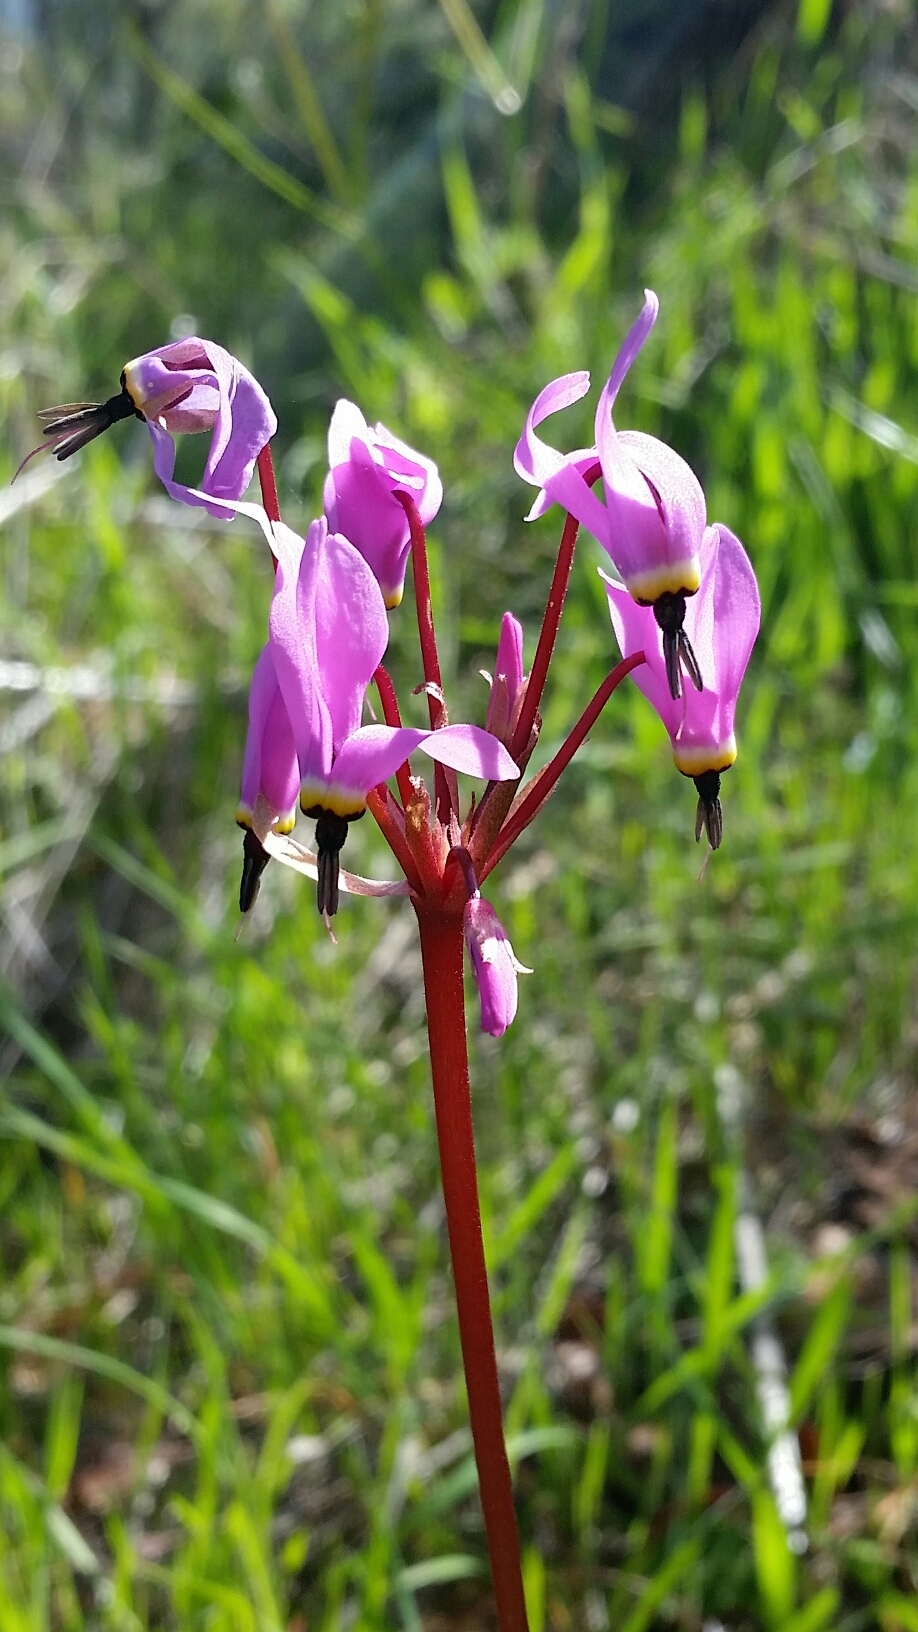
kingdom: Plantae
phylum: Tracheophyta
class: Magnoliopsida
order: Ericales
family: Primulaceae
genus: Dodecatheon
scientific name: Dodecatheon hendersonii
